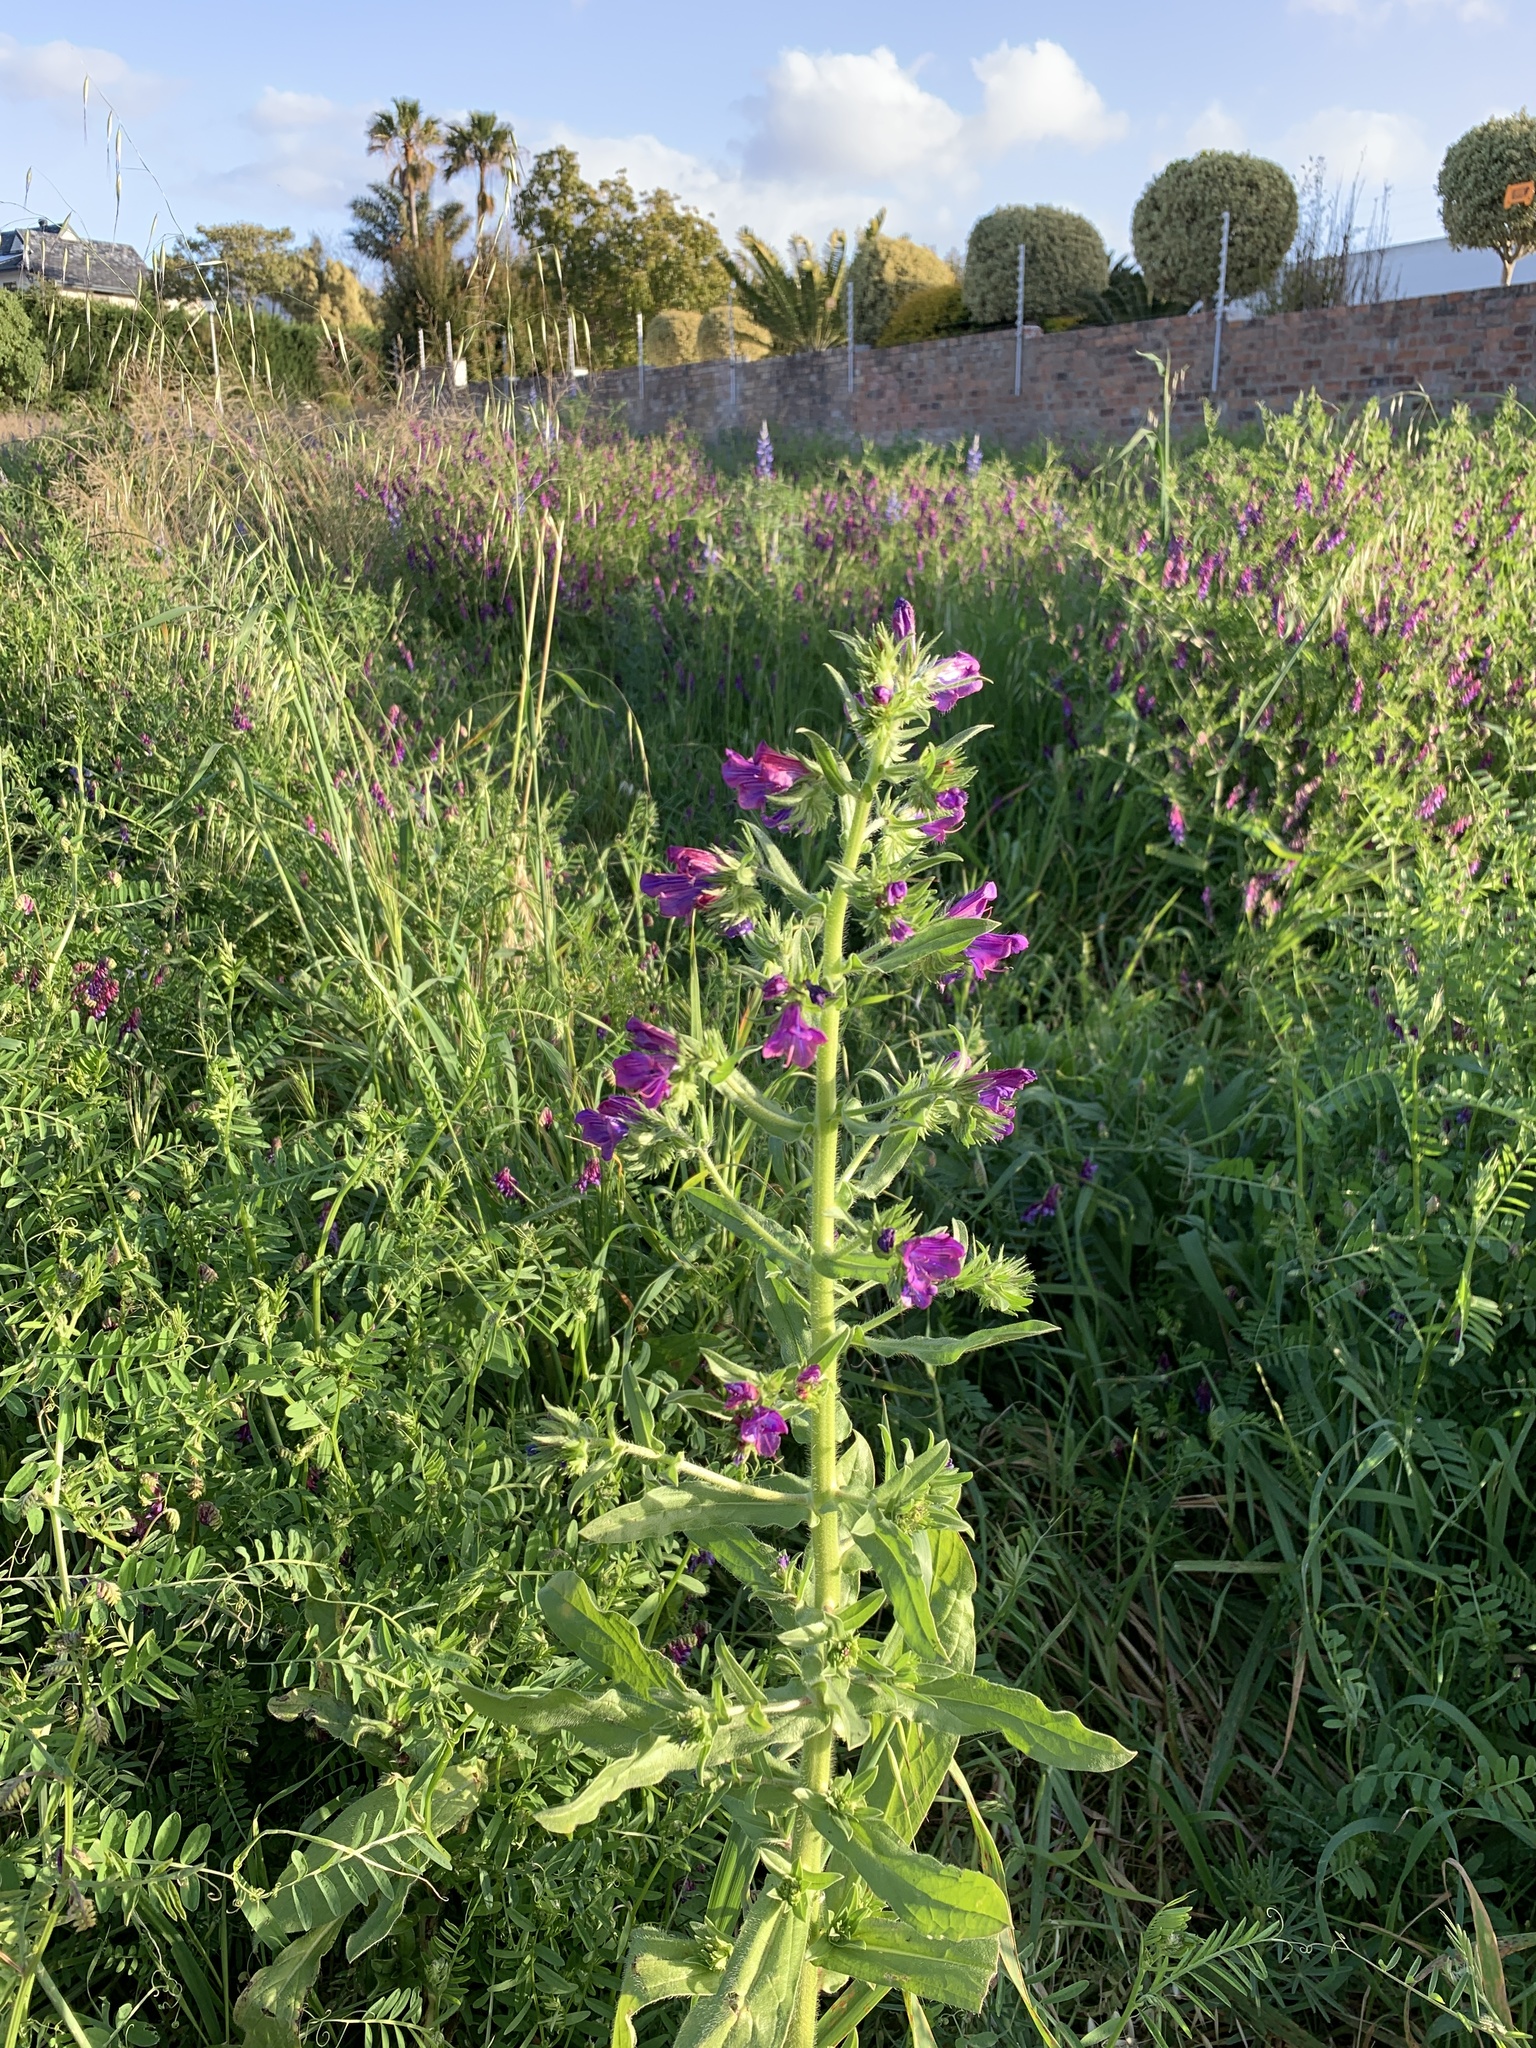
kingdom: Plantae
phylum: Tracheophyta
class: Magnoliopsida
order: Boraginales
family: Boraginaceae
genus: Echium
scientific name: Echium plantagineum
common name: Purple viper's-bugloss
